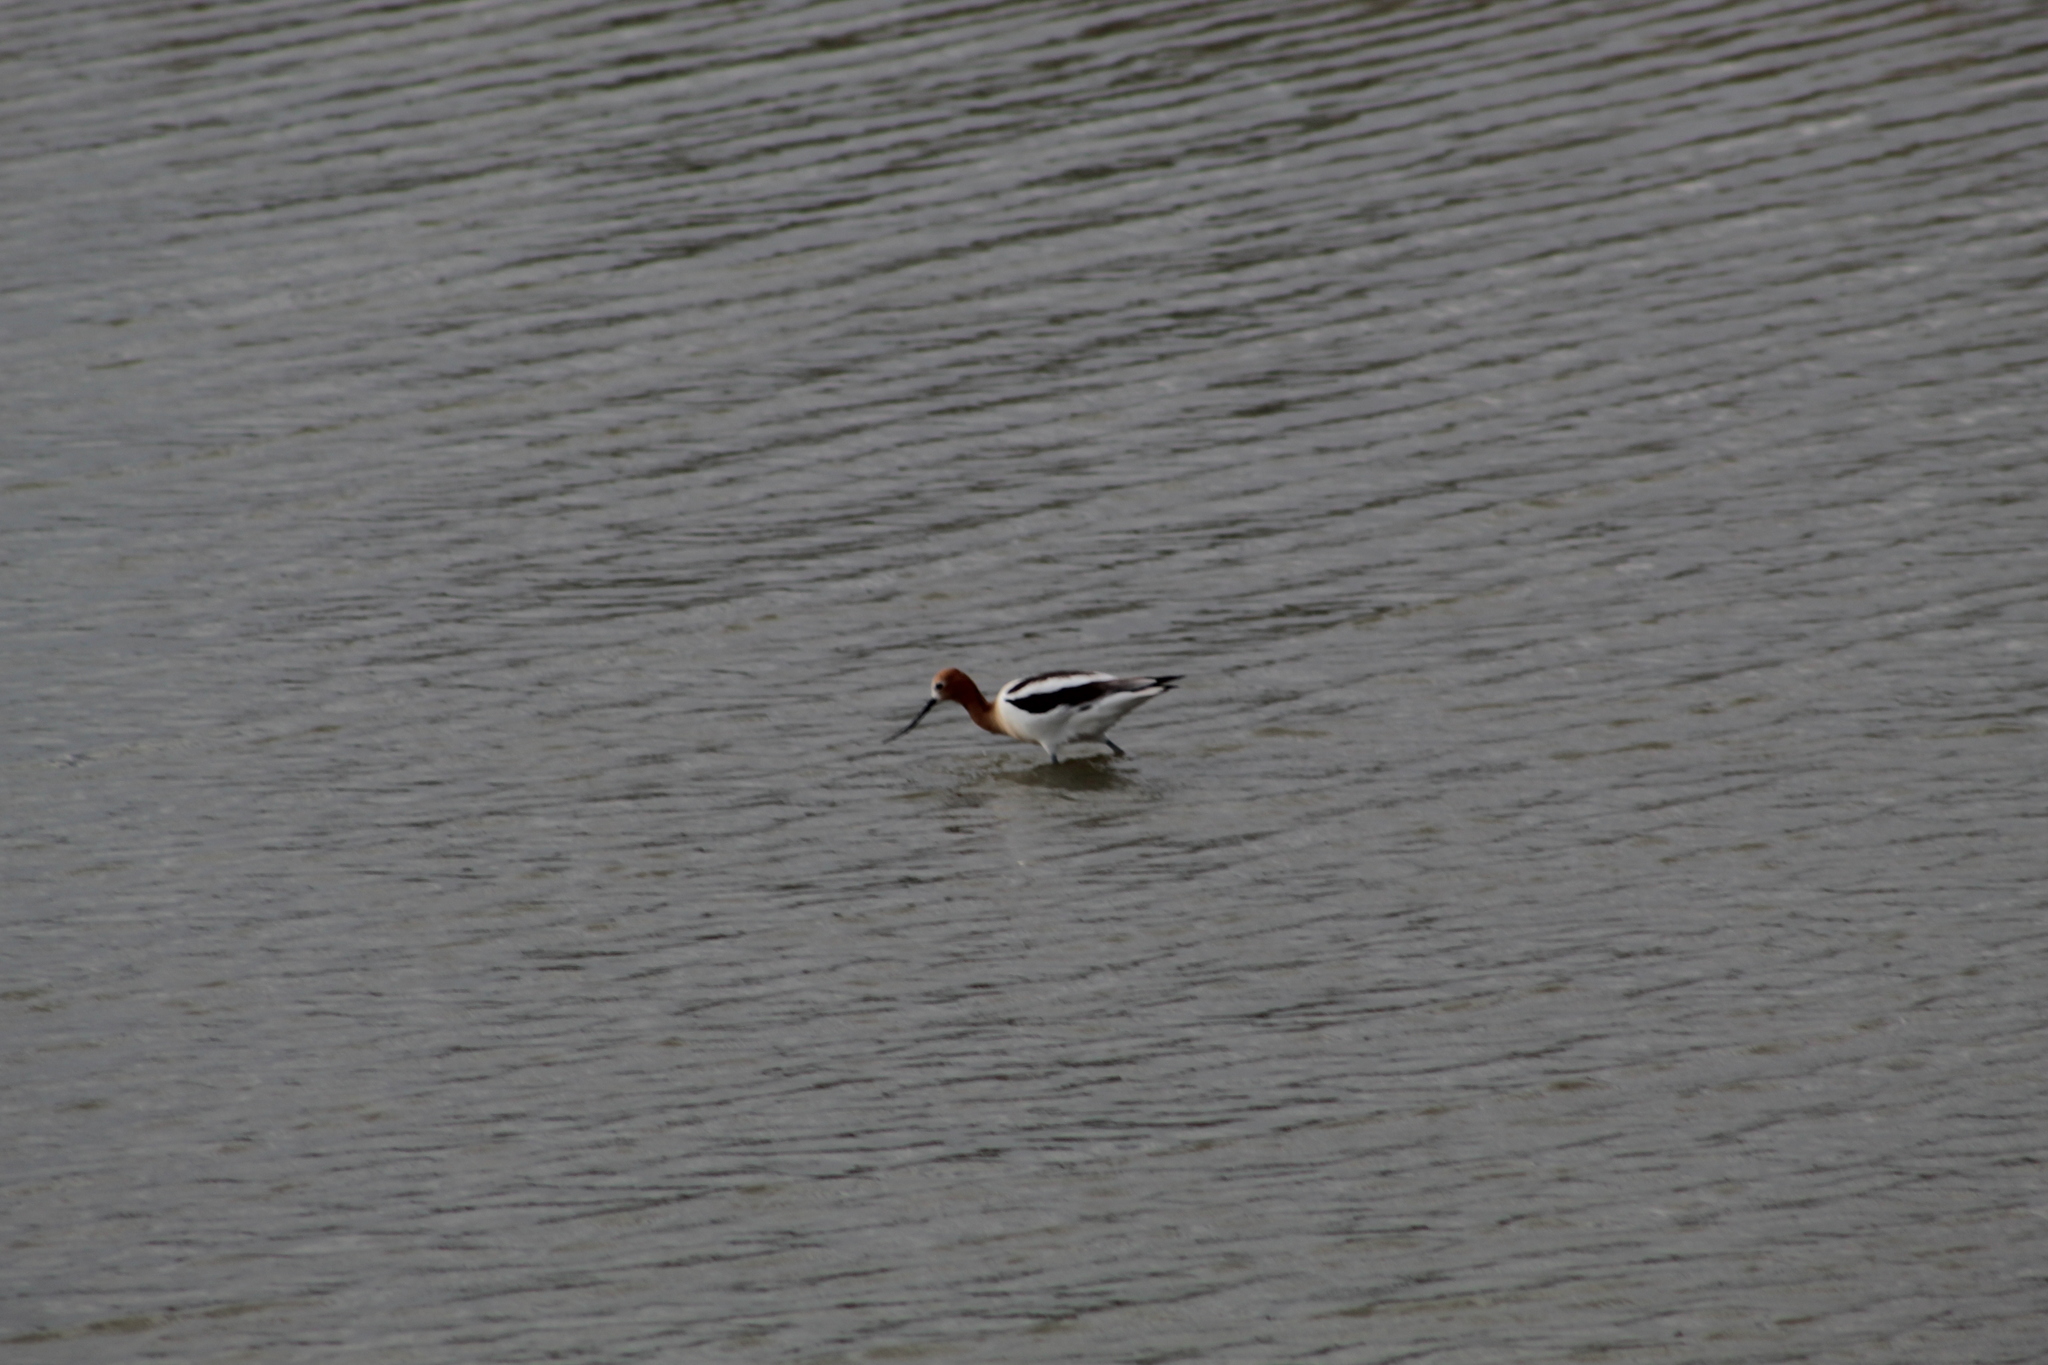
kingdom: Animalia
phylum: Chordata
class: Aves
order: Charadriiformes
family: Recurvirostridae
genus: Recurvirostra
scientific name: Recurvirostra americana
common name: American avocet
